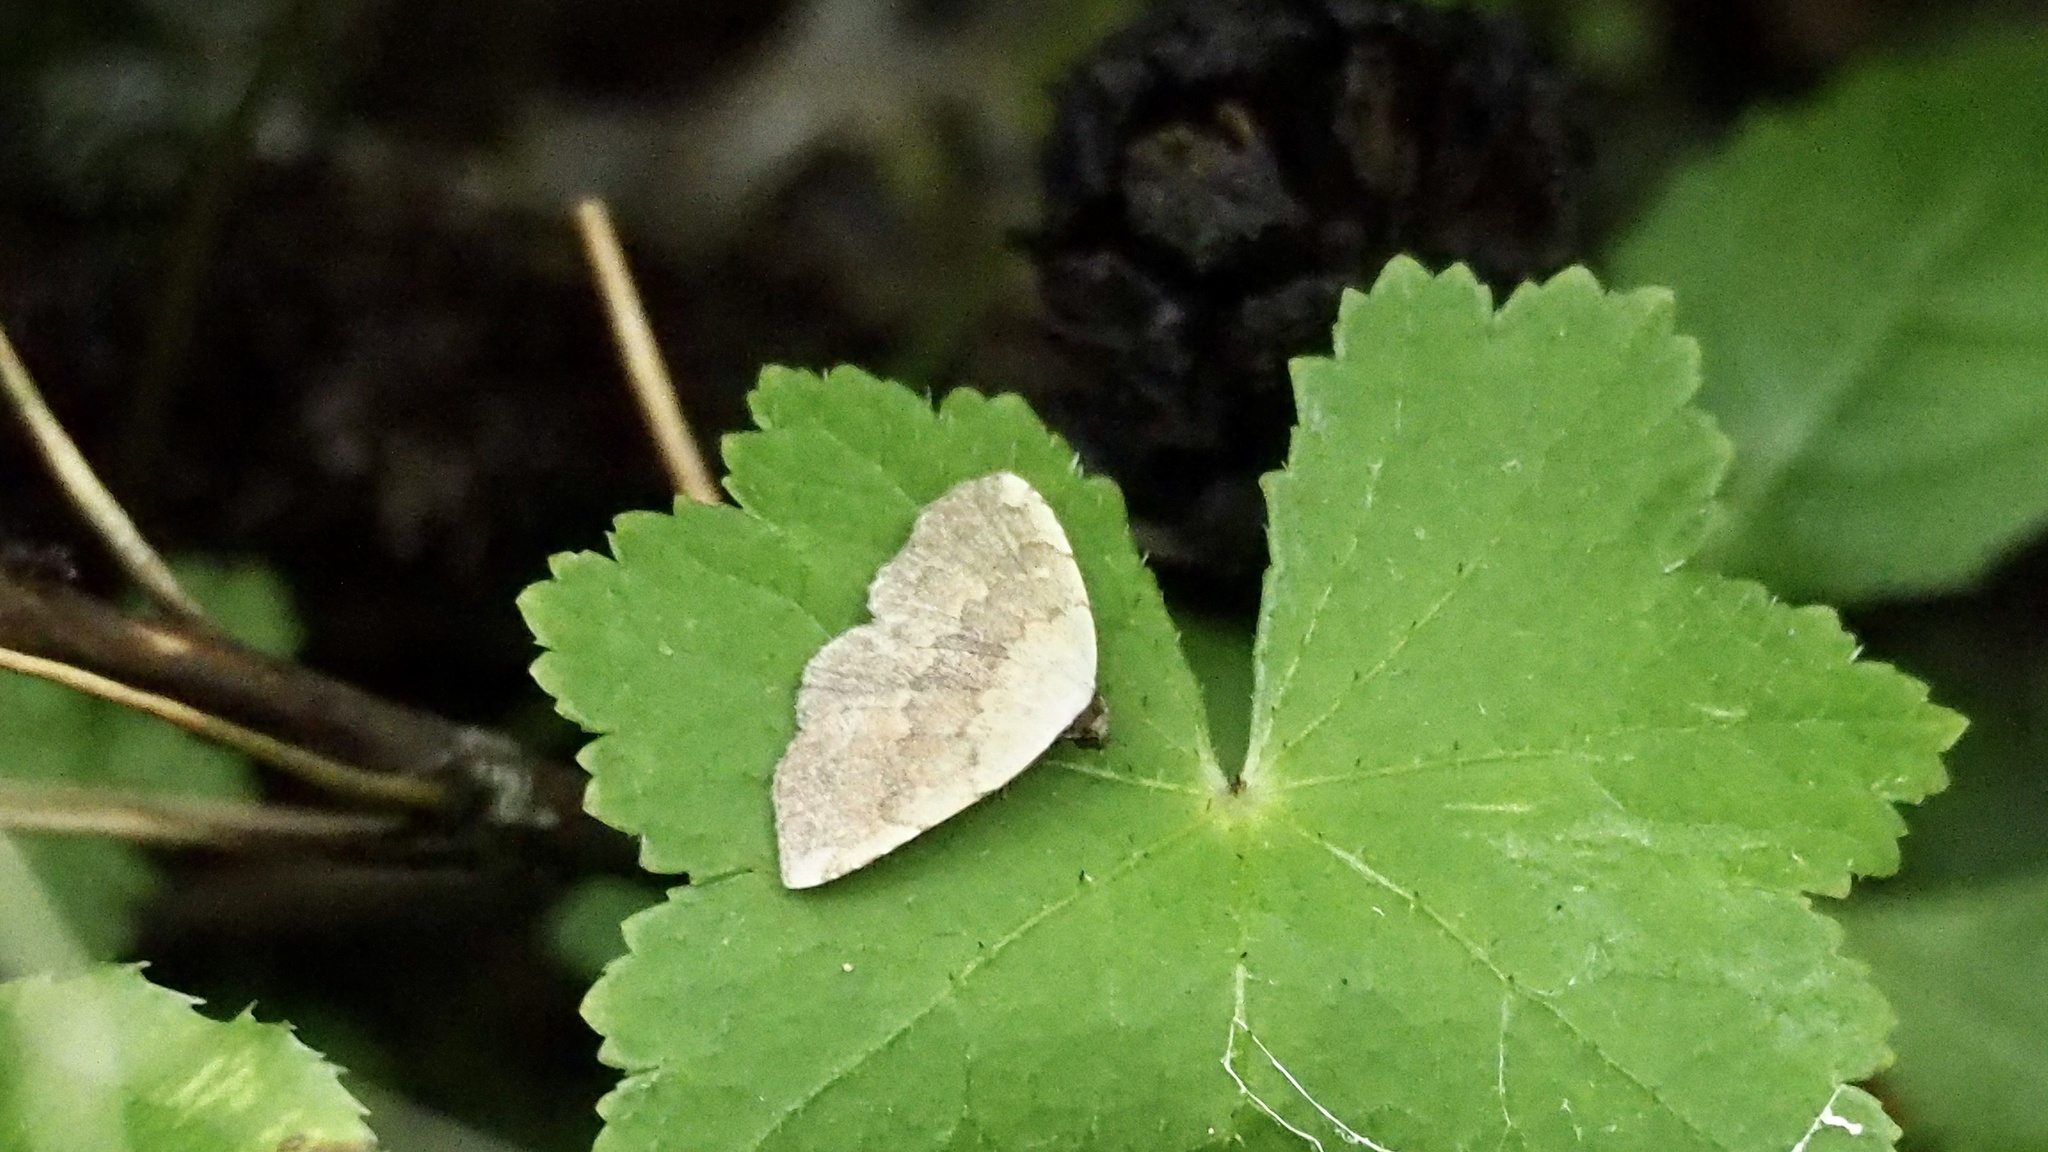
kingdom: Animalia
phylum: Arthropoda
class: Insecta
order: Lepidoptera
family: Noctuidae
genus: Autoba
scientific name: Autoba tristalis
